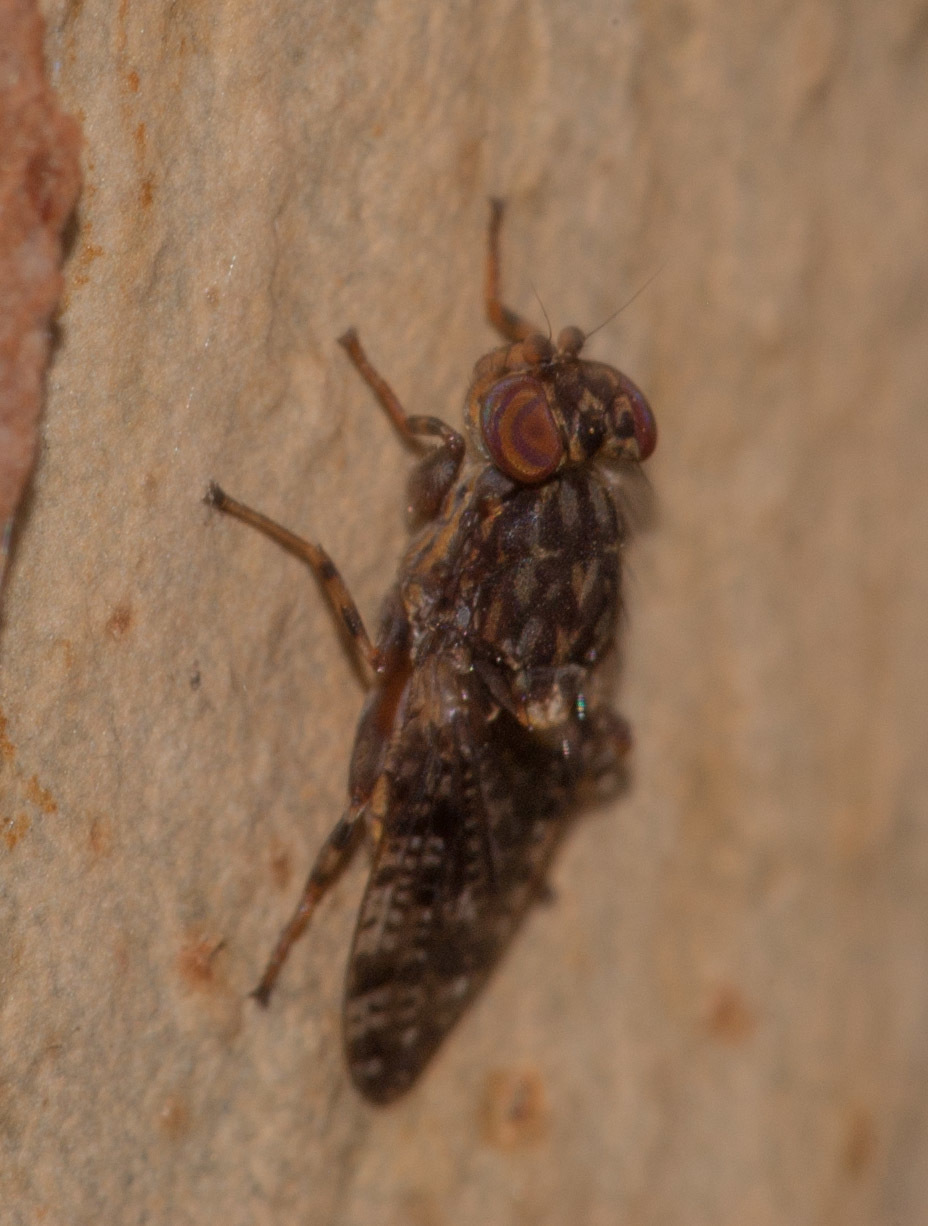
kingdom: Animalia
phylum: Arthropoda
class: Insecta
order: Diptera
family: Heleomyzidae
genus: Cairnsimyia
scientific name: Cairnsimyia
